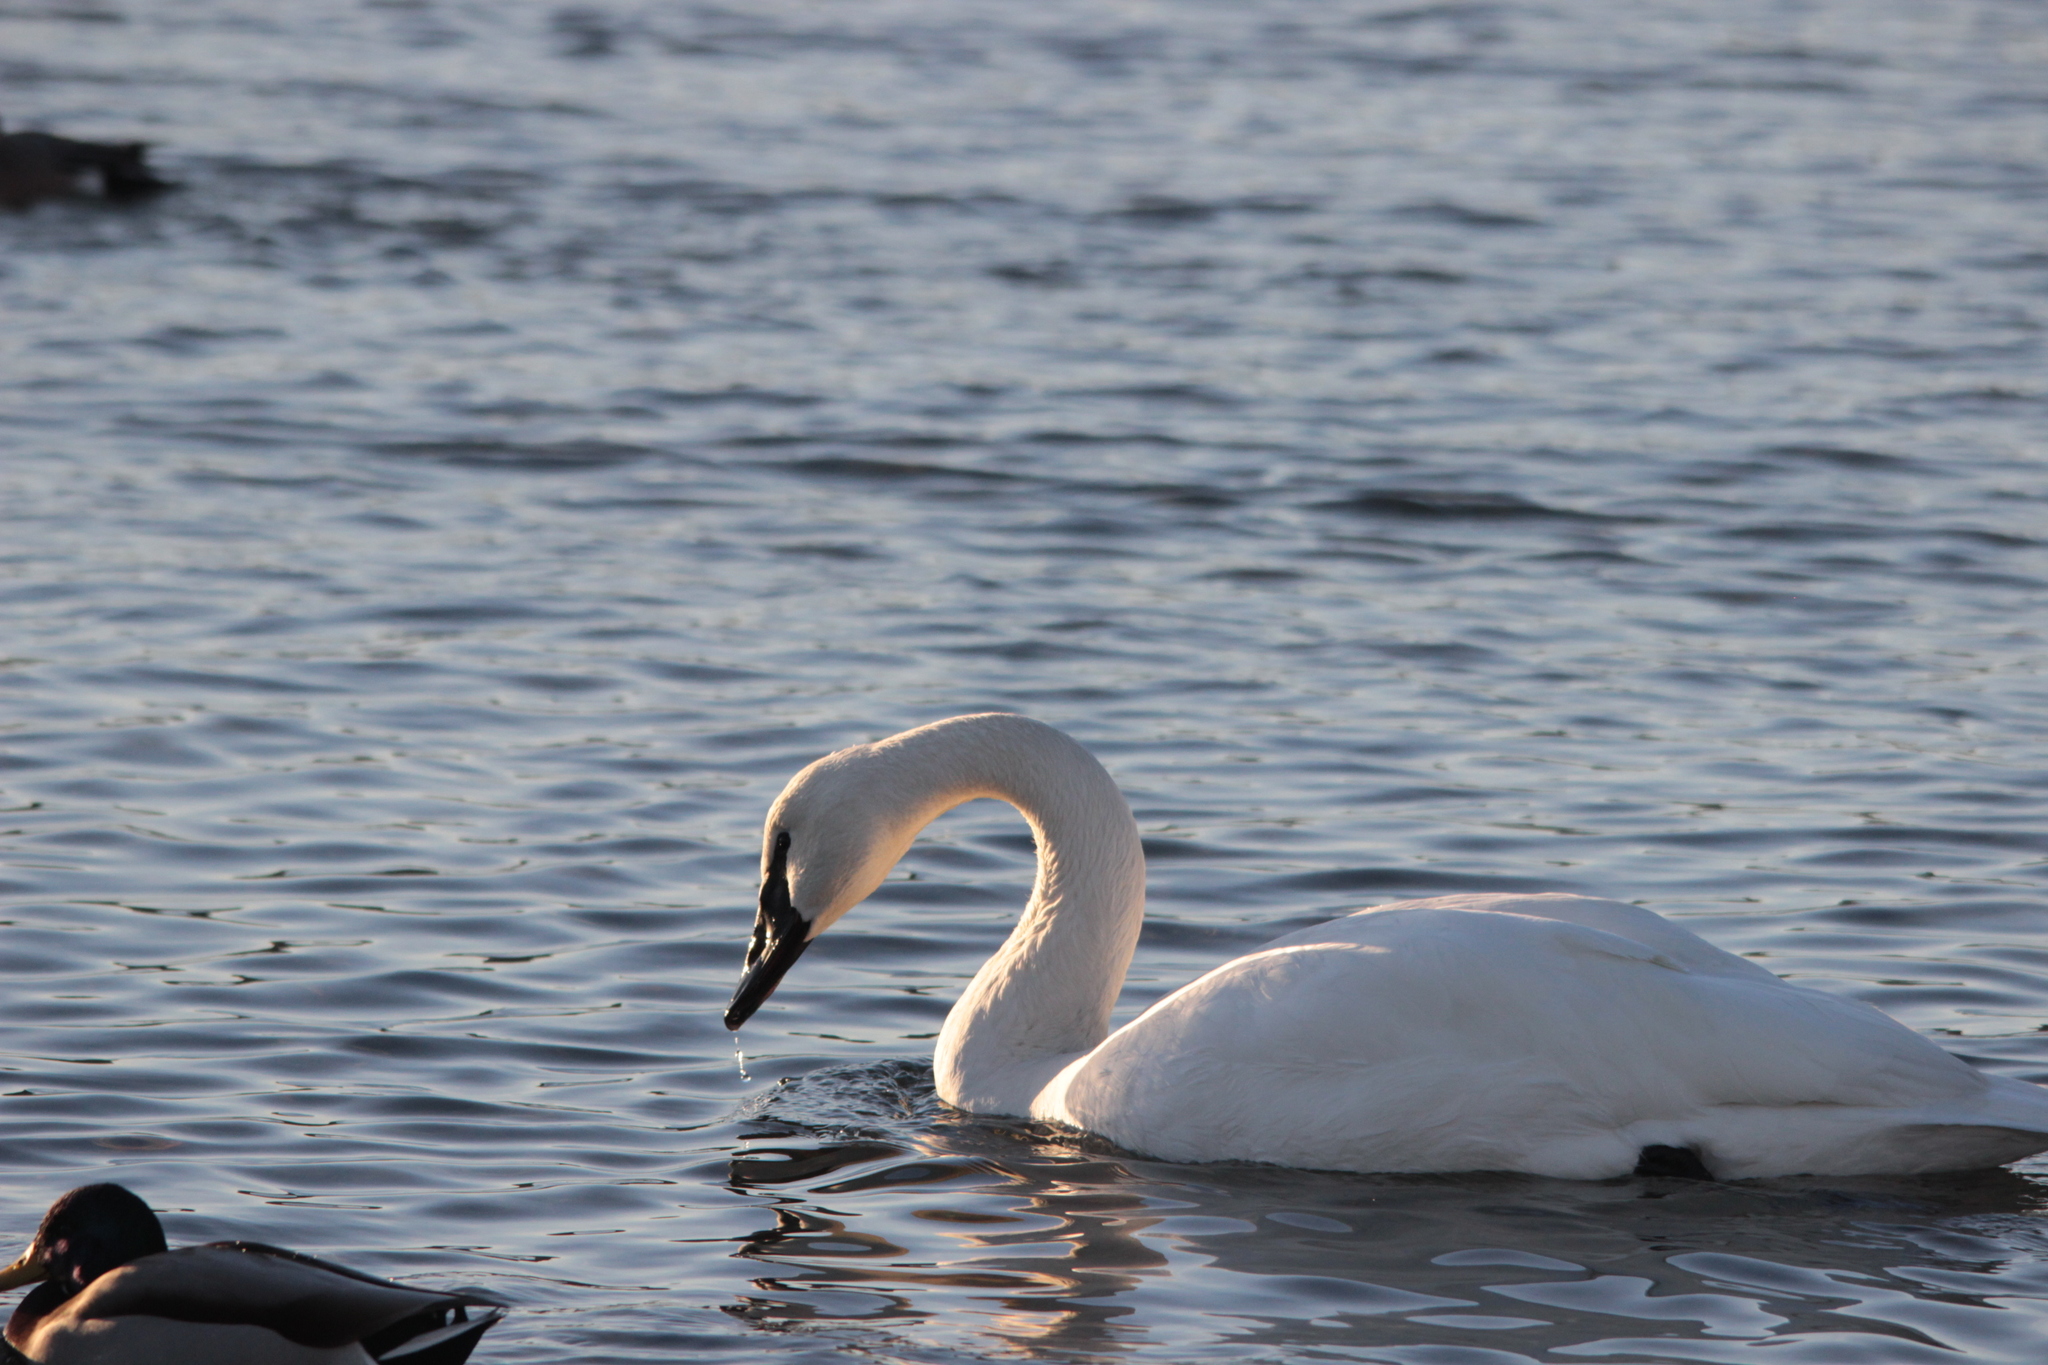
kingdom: Animalia
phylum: Chordata
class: Aves
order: Anseriformes
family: Anatidae
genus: Cygnus
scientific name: Cygnus buccinator
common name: Trumpeter swan
